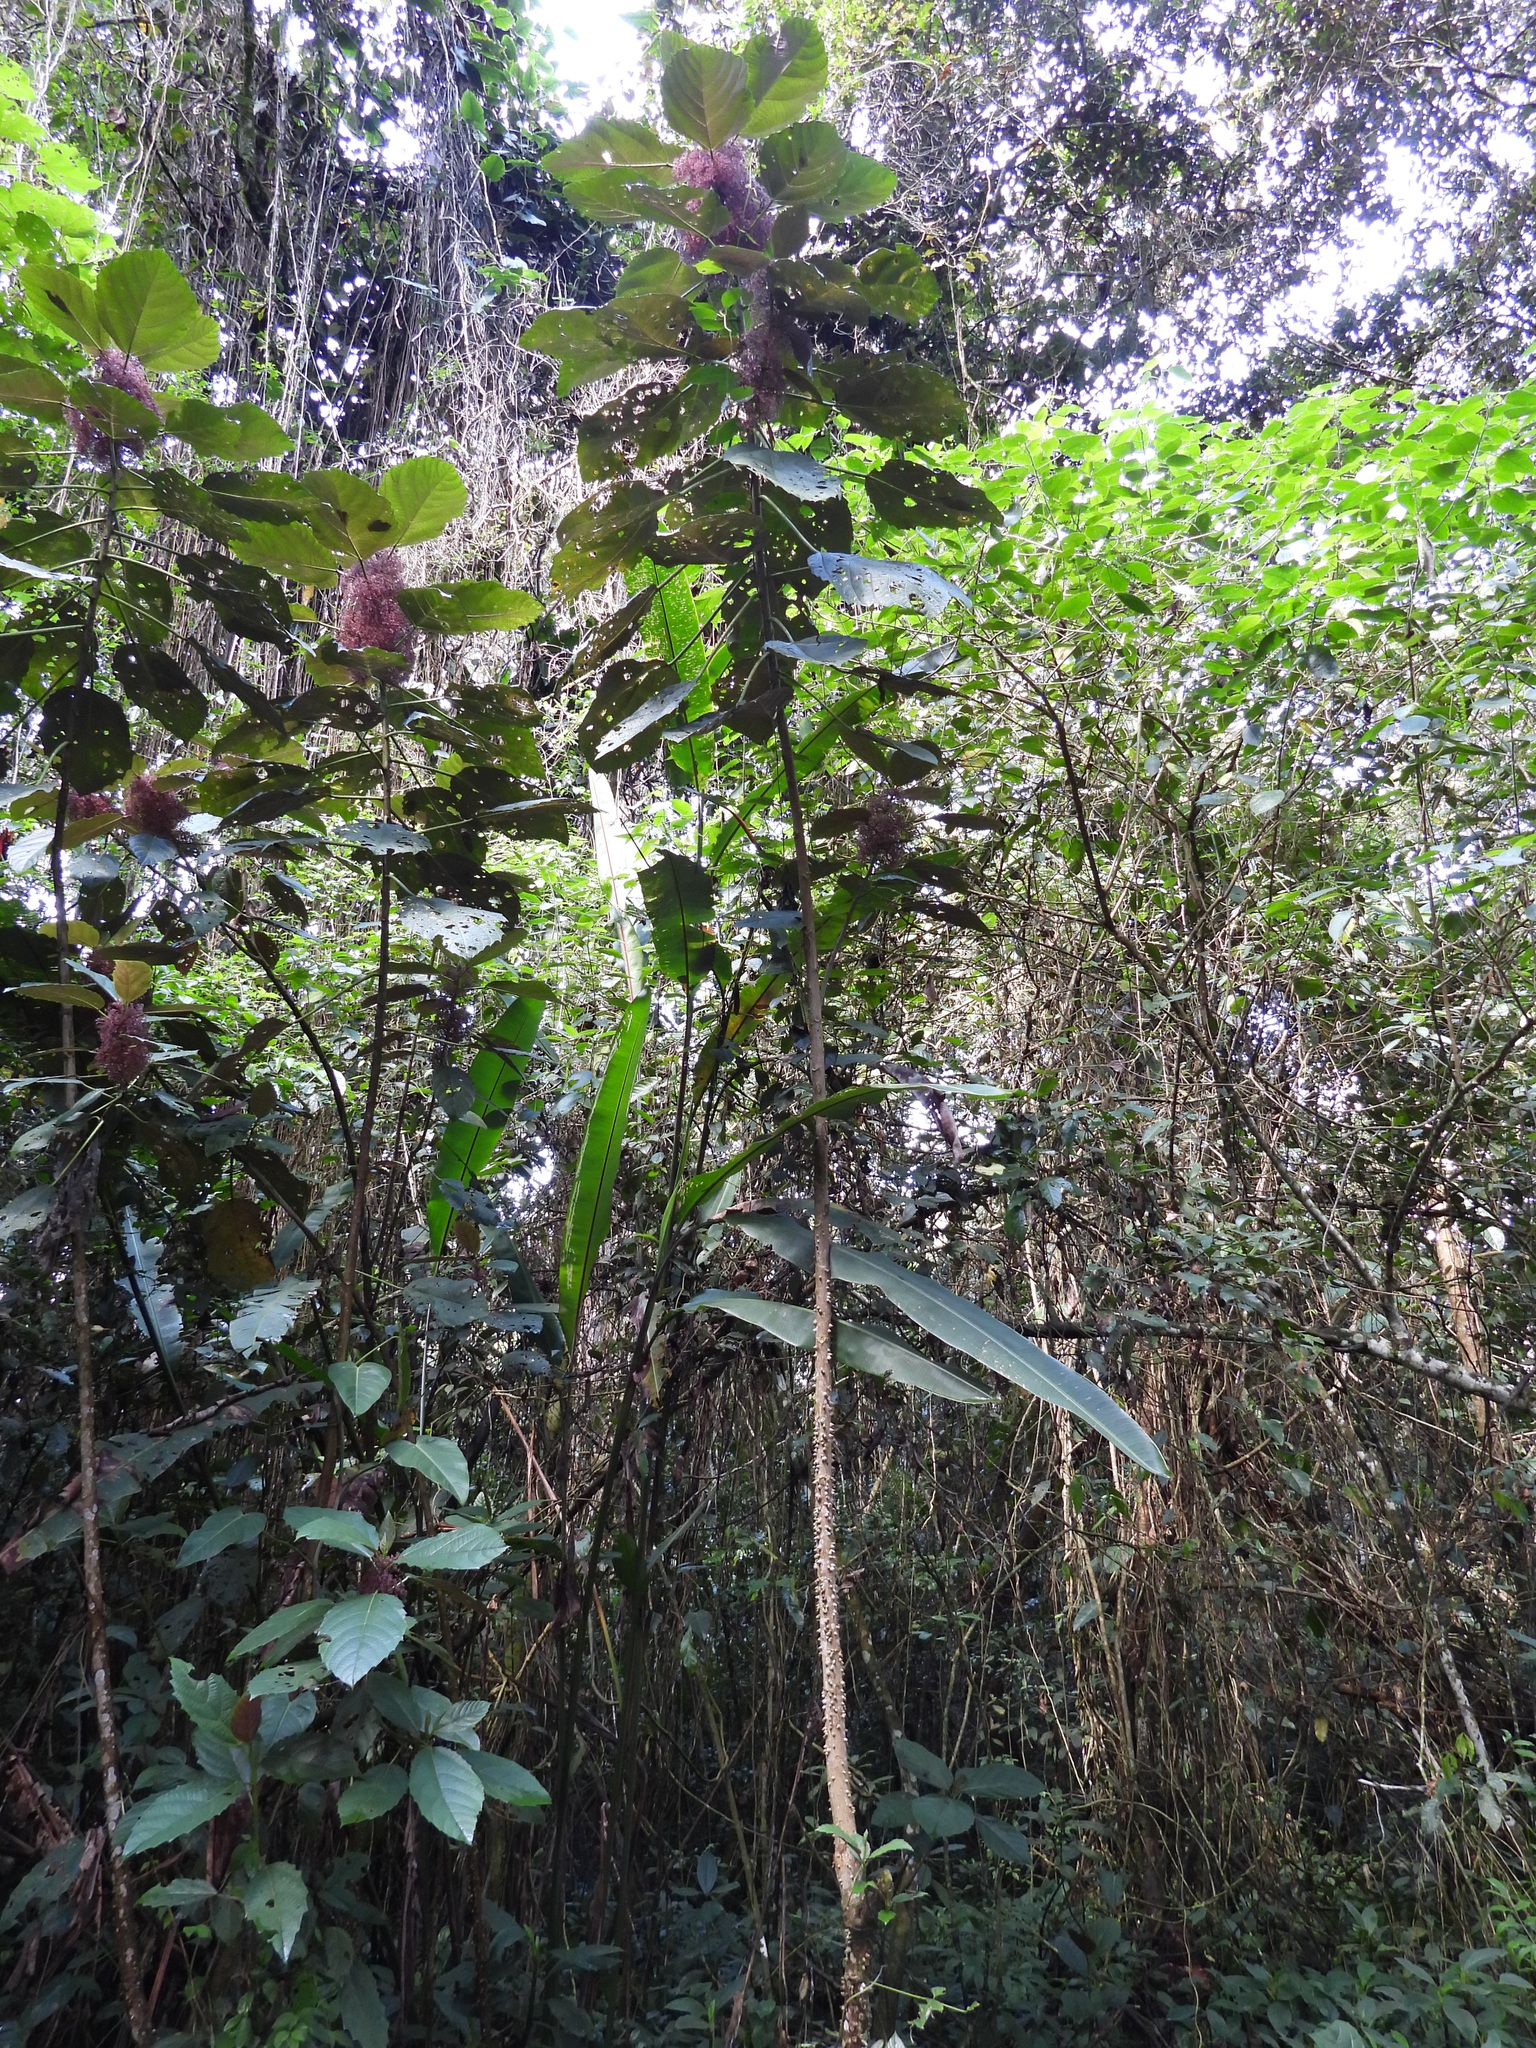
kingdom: Plantae
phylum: Tracheophyta
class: Magnoliopsida
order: Rosales
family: Urticaceae
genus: Urera
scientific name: Urera baccifera
